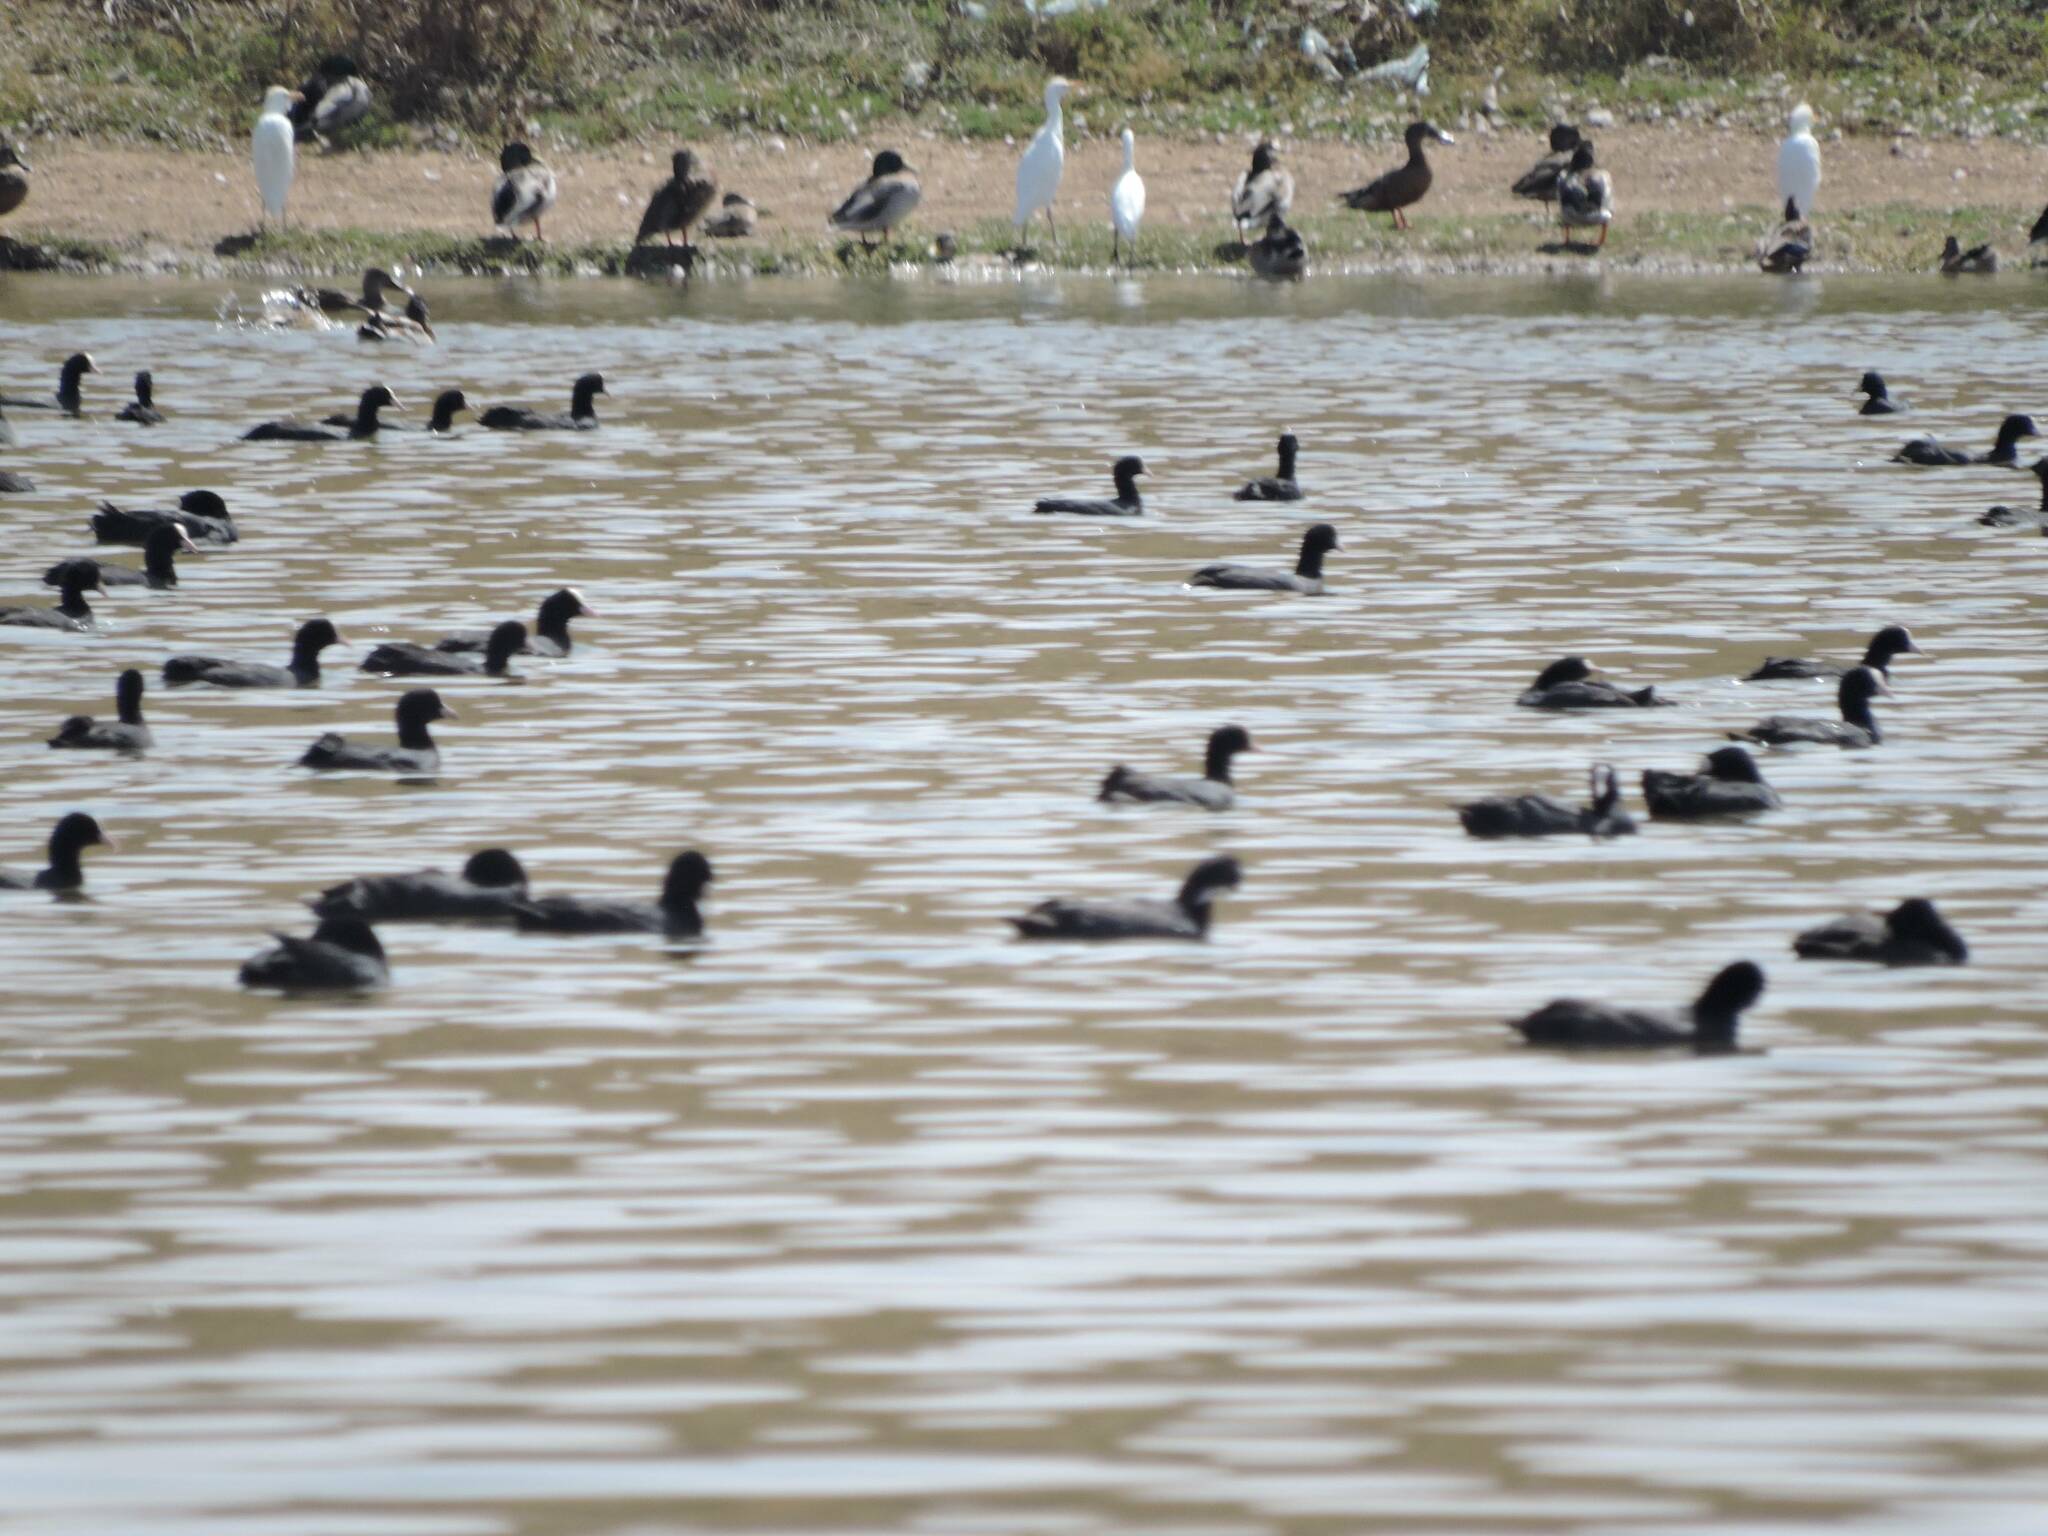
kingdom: Animalia
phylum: Chordata
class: Aves
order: Gruiformes
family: Rallidae
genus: Fulica
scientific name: Fulica atra
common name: Eurasian coot
